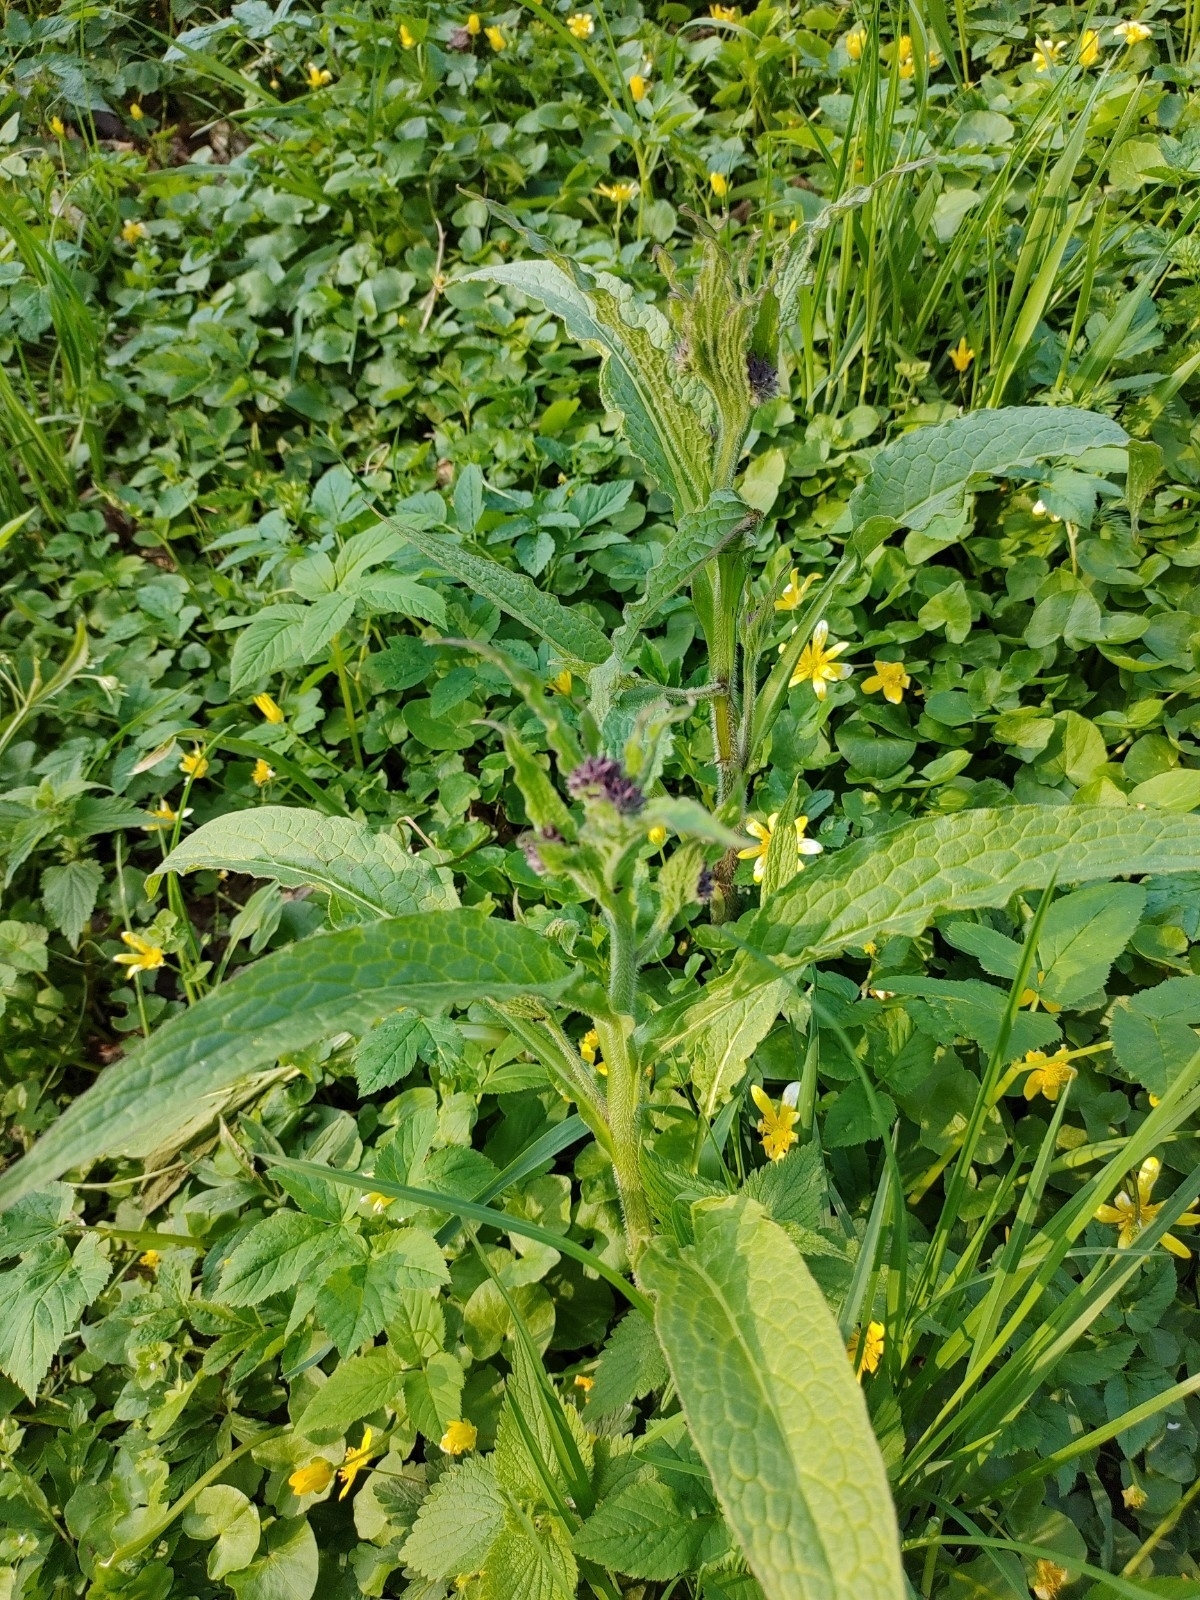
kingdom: Plantae
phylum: Tracheophyta
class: Magnoliopsida
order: Boraginales
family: Boraginaceae
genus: Symphytum
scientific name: Symphytum officinale
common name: Common comfrey
